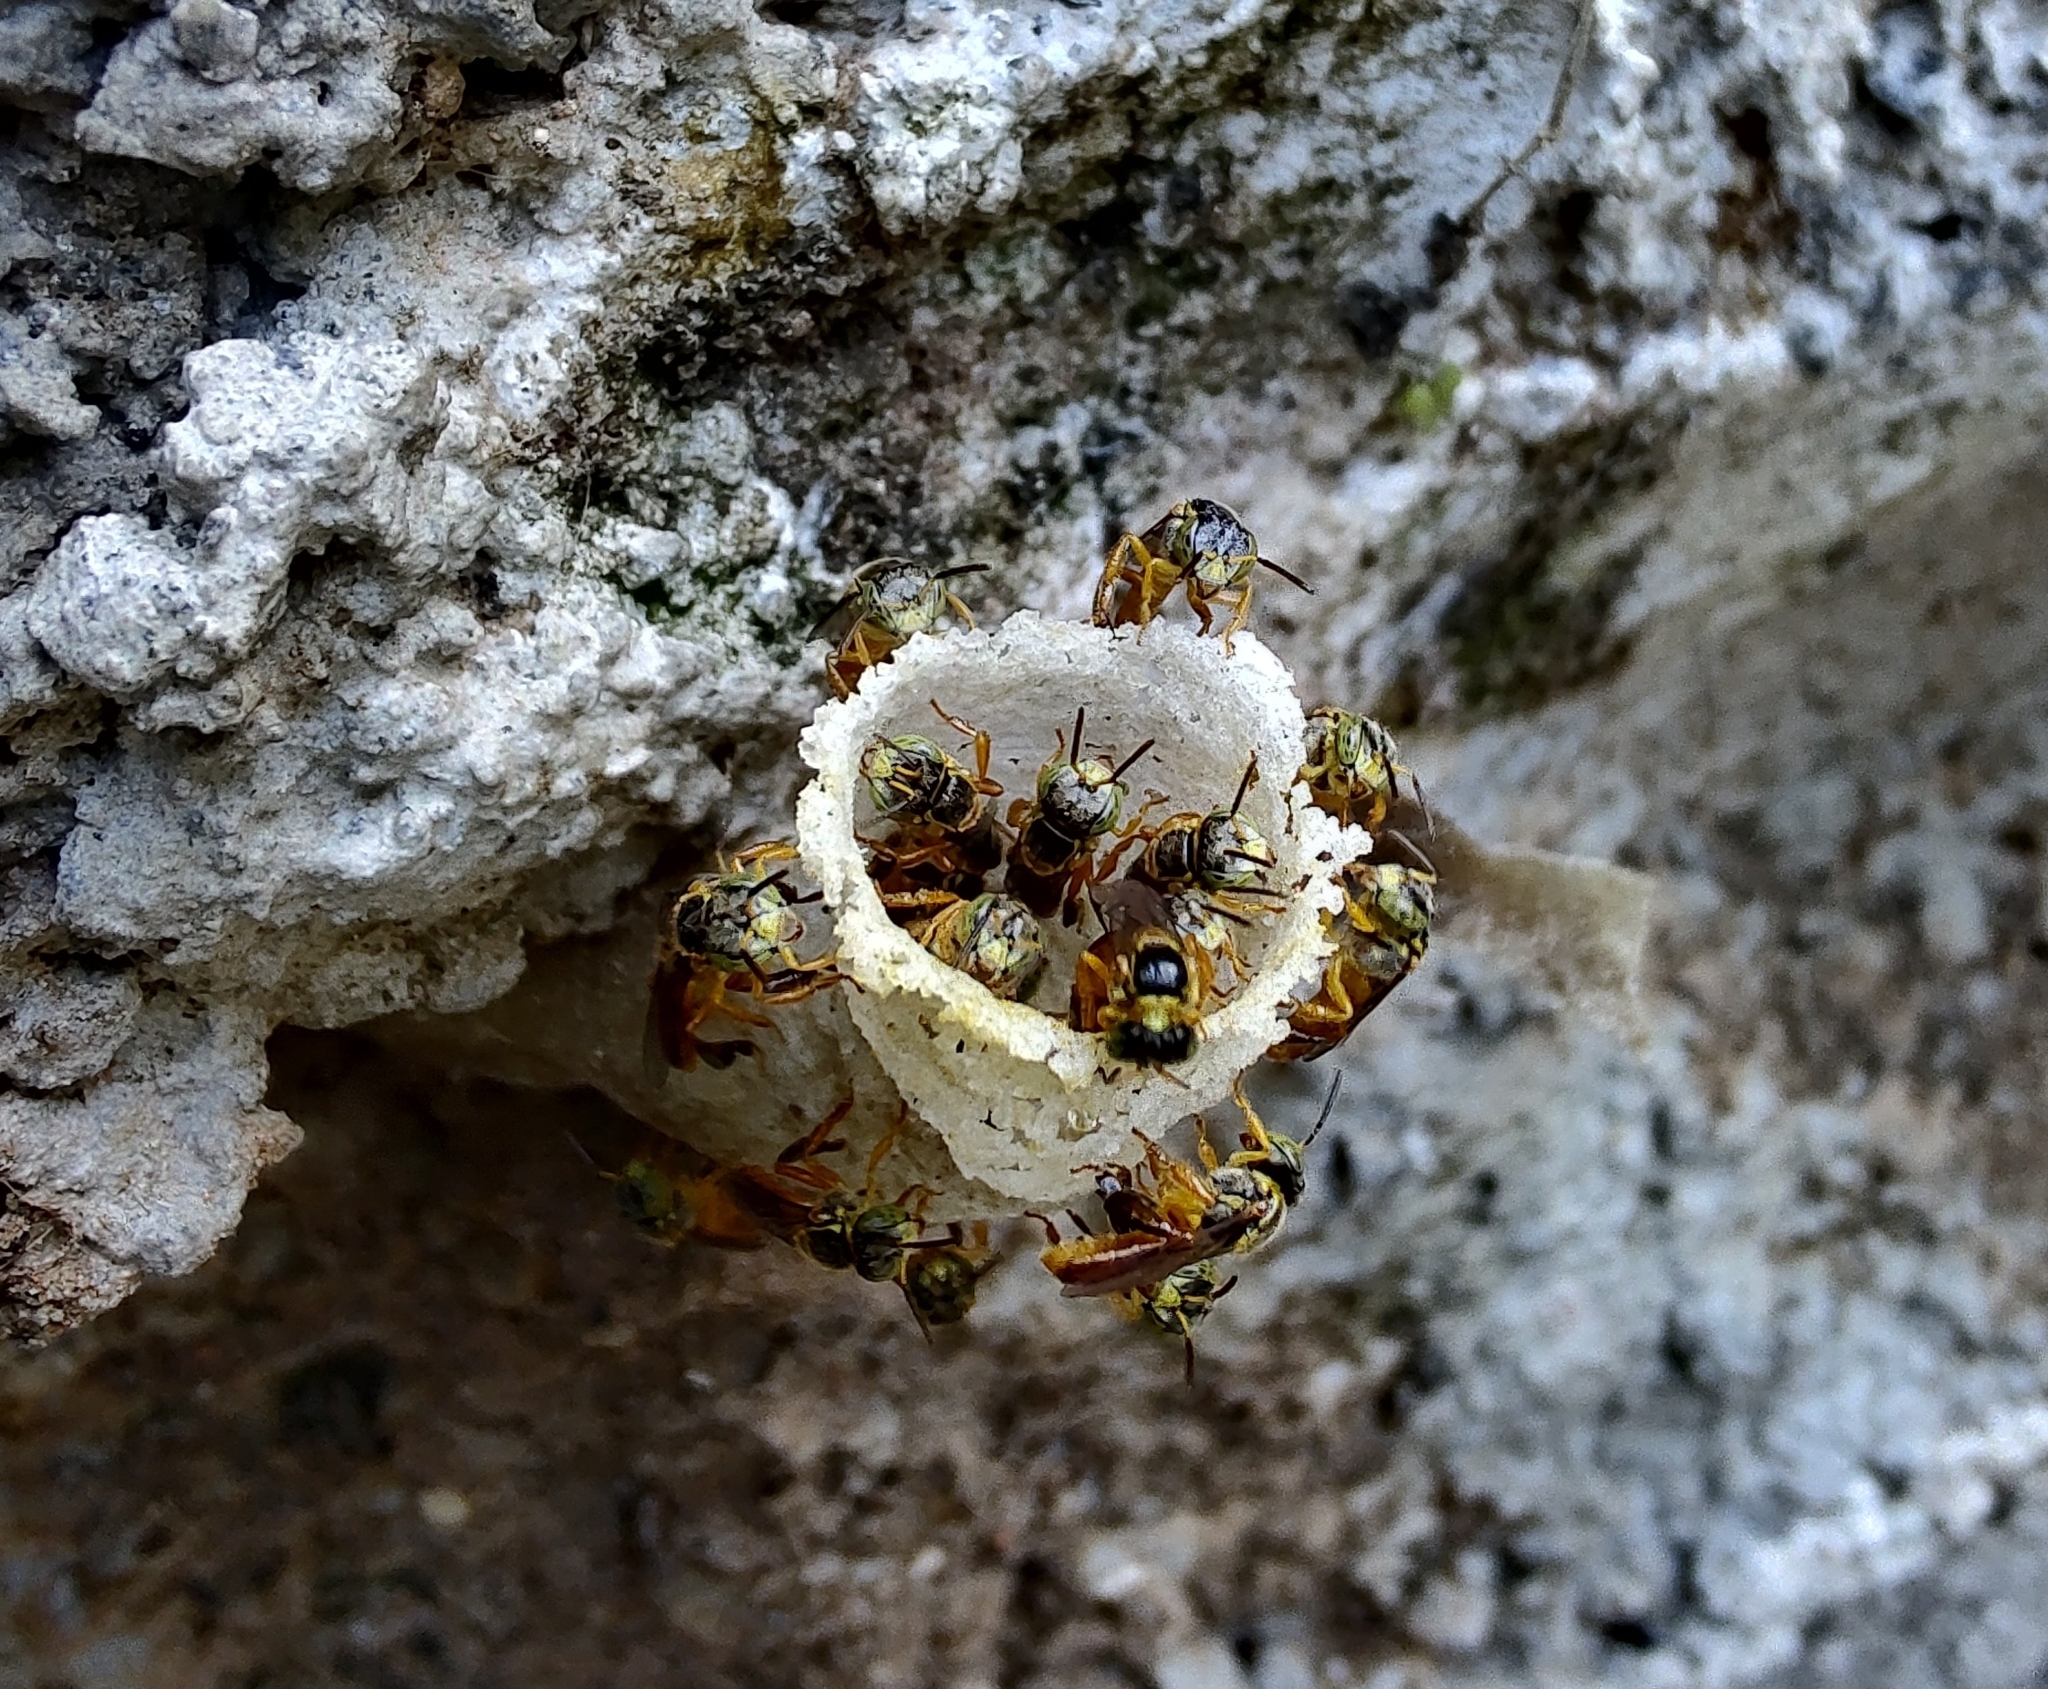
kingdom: Animalia
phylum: Arthropoda
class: Insecta
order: Hymenoptera
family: Apidae
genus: Tetragonisca
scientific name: Tetragonisca angustula
